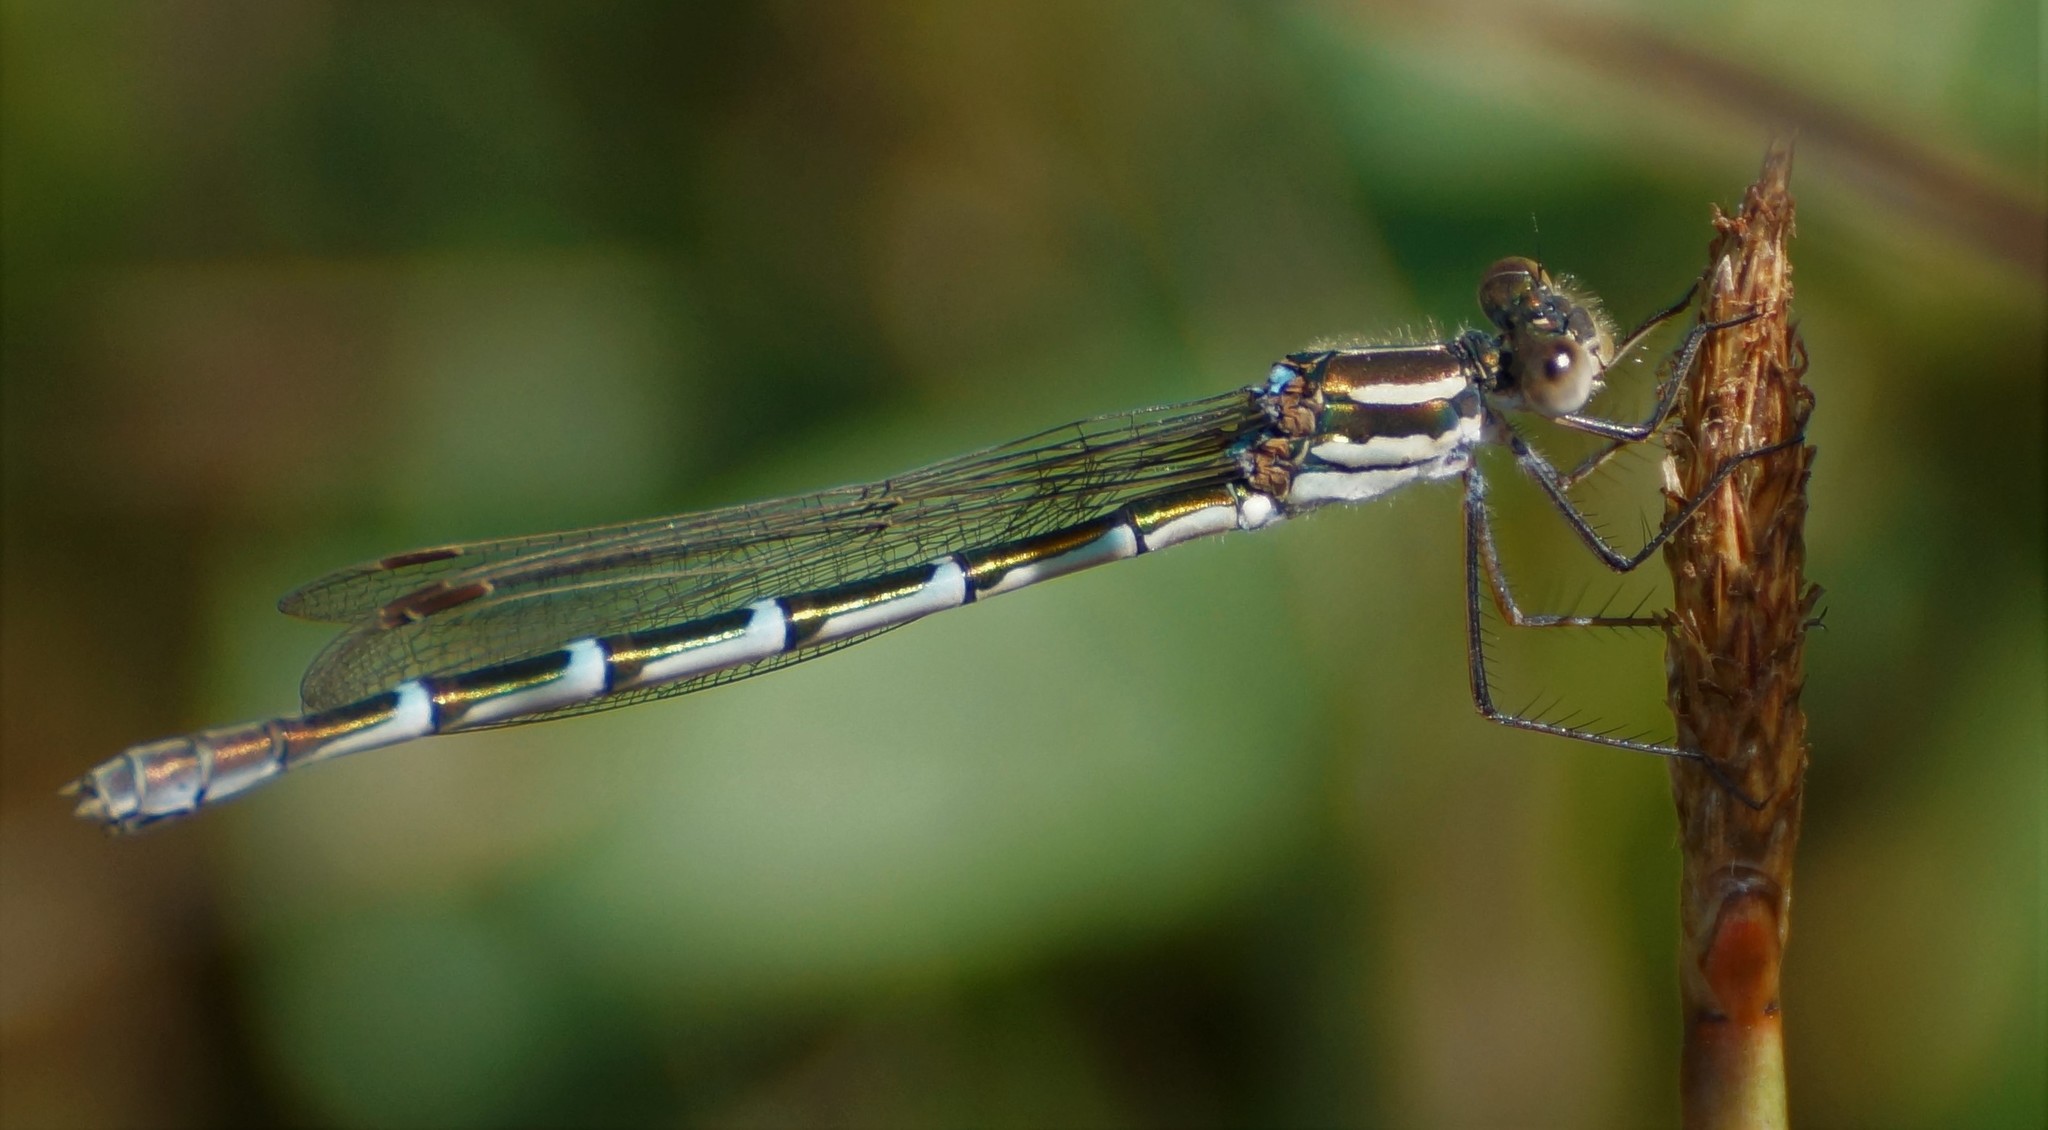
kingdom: Animalia
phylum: Arthropoda
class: Insecta
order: Odonata
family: Lestidae
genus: Austrolestes
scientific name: Austrolestes annulosus
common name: Blue ringtail
